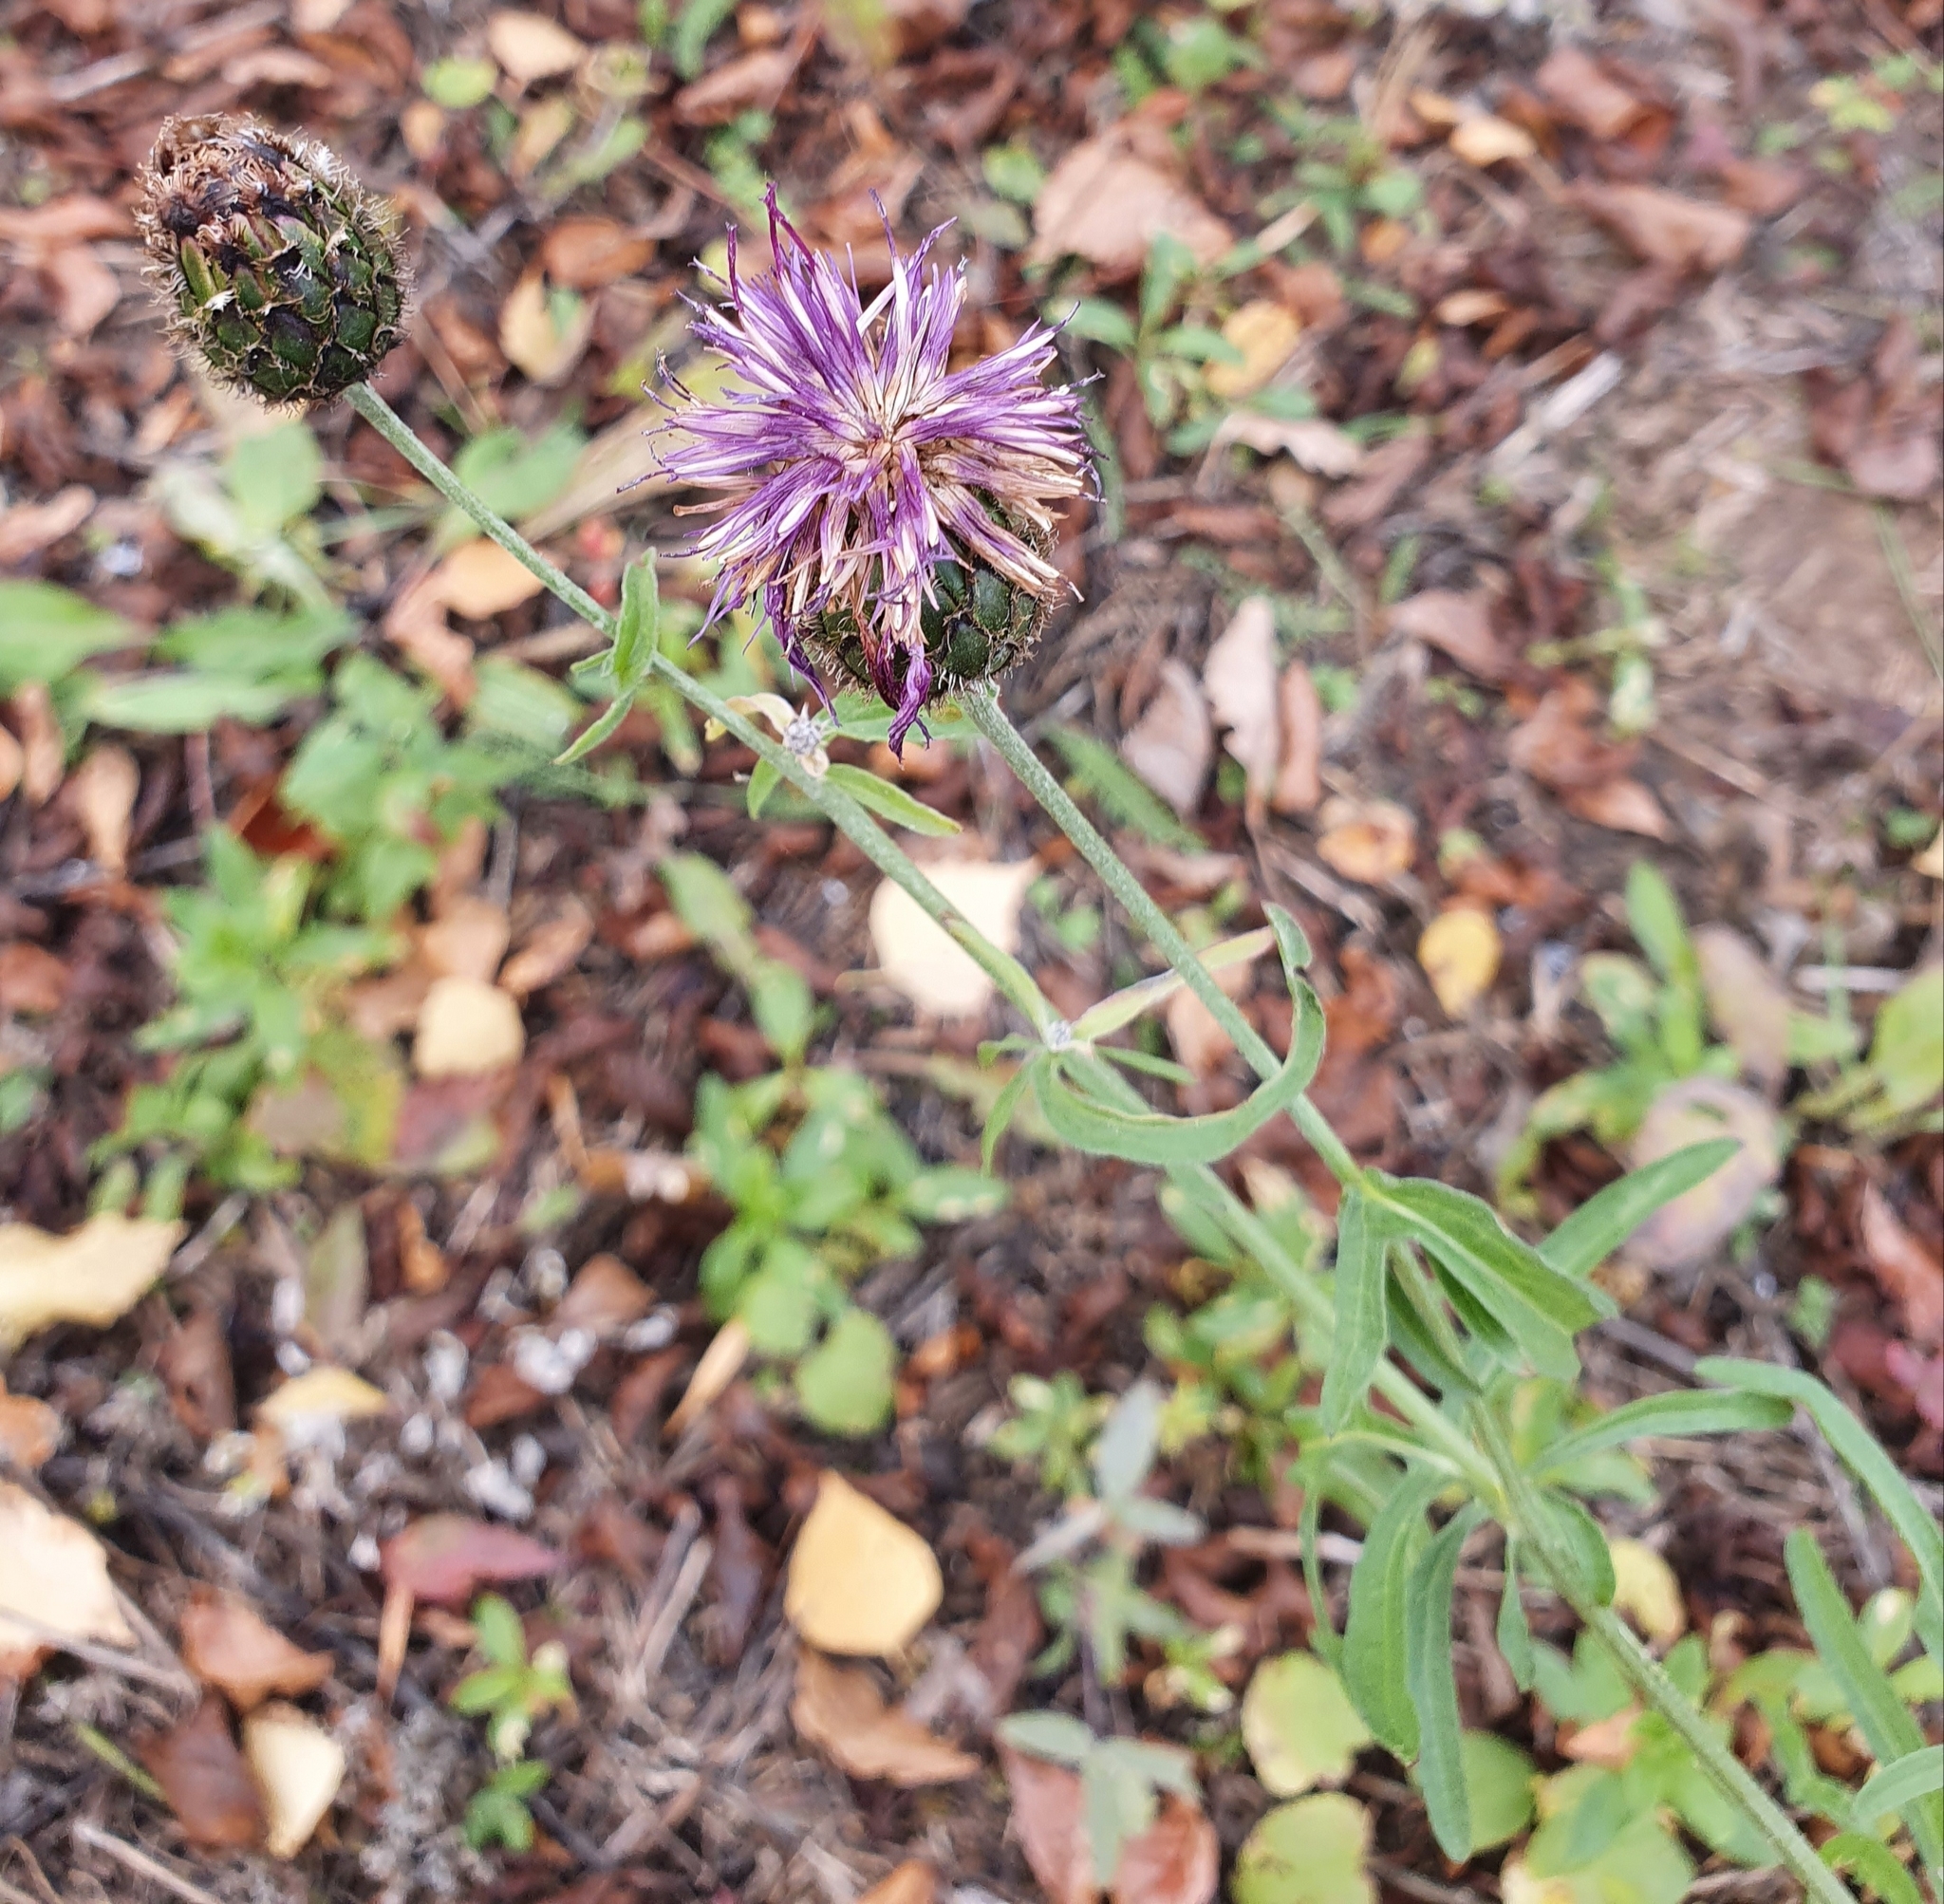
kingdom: Plantae
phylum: Tracheophyta
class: Magnoliopsida
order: Asterales
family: Asteraceae
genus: Centaurea
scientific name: Centaurea scabiosa
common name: Greater knapweed
